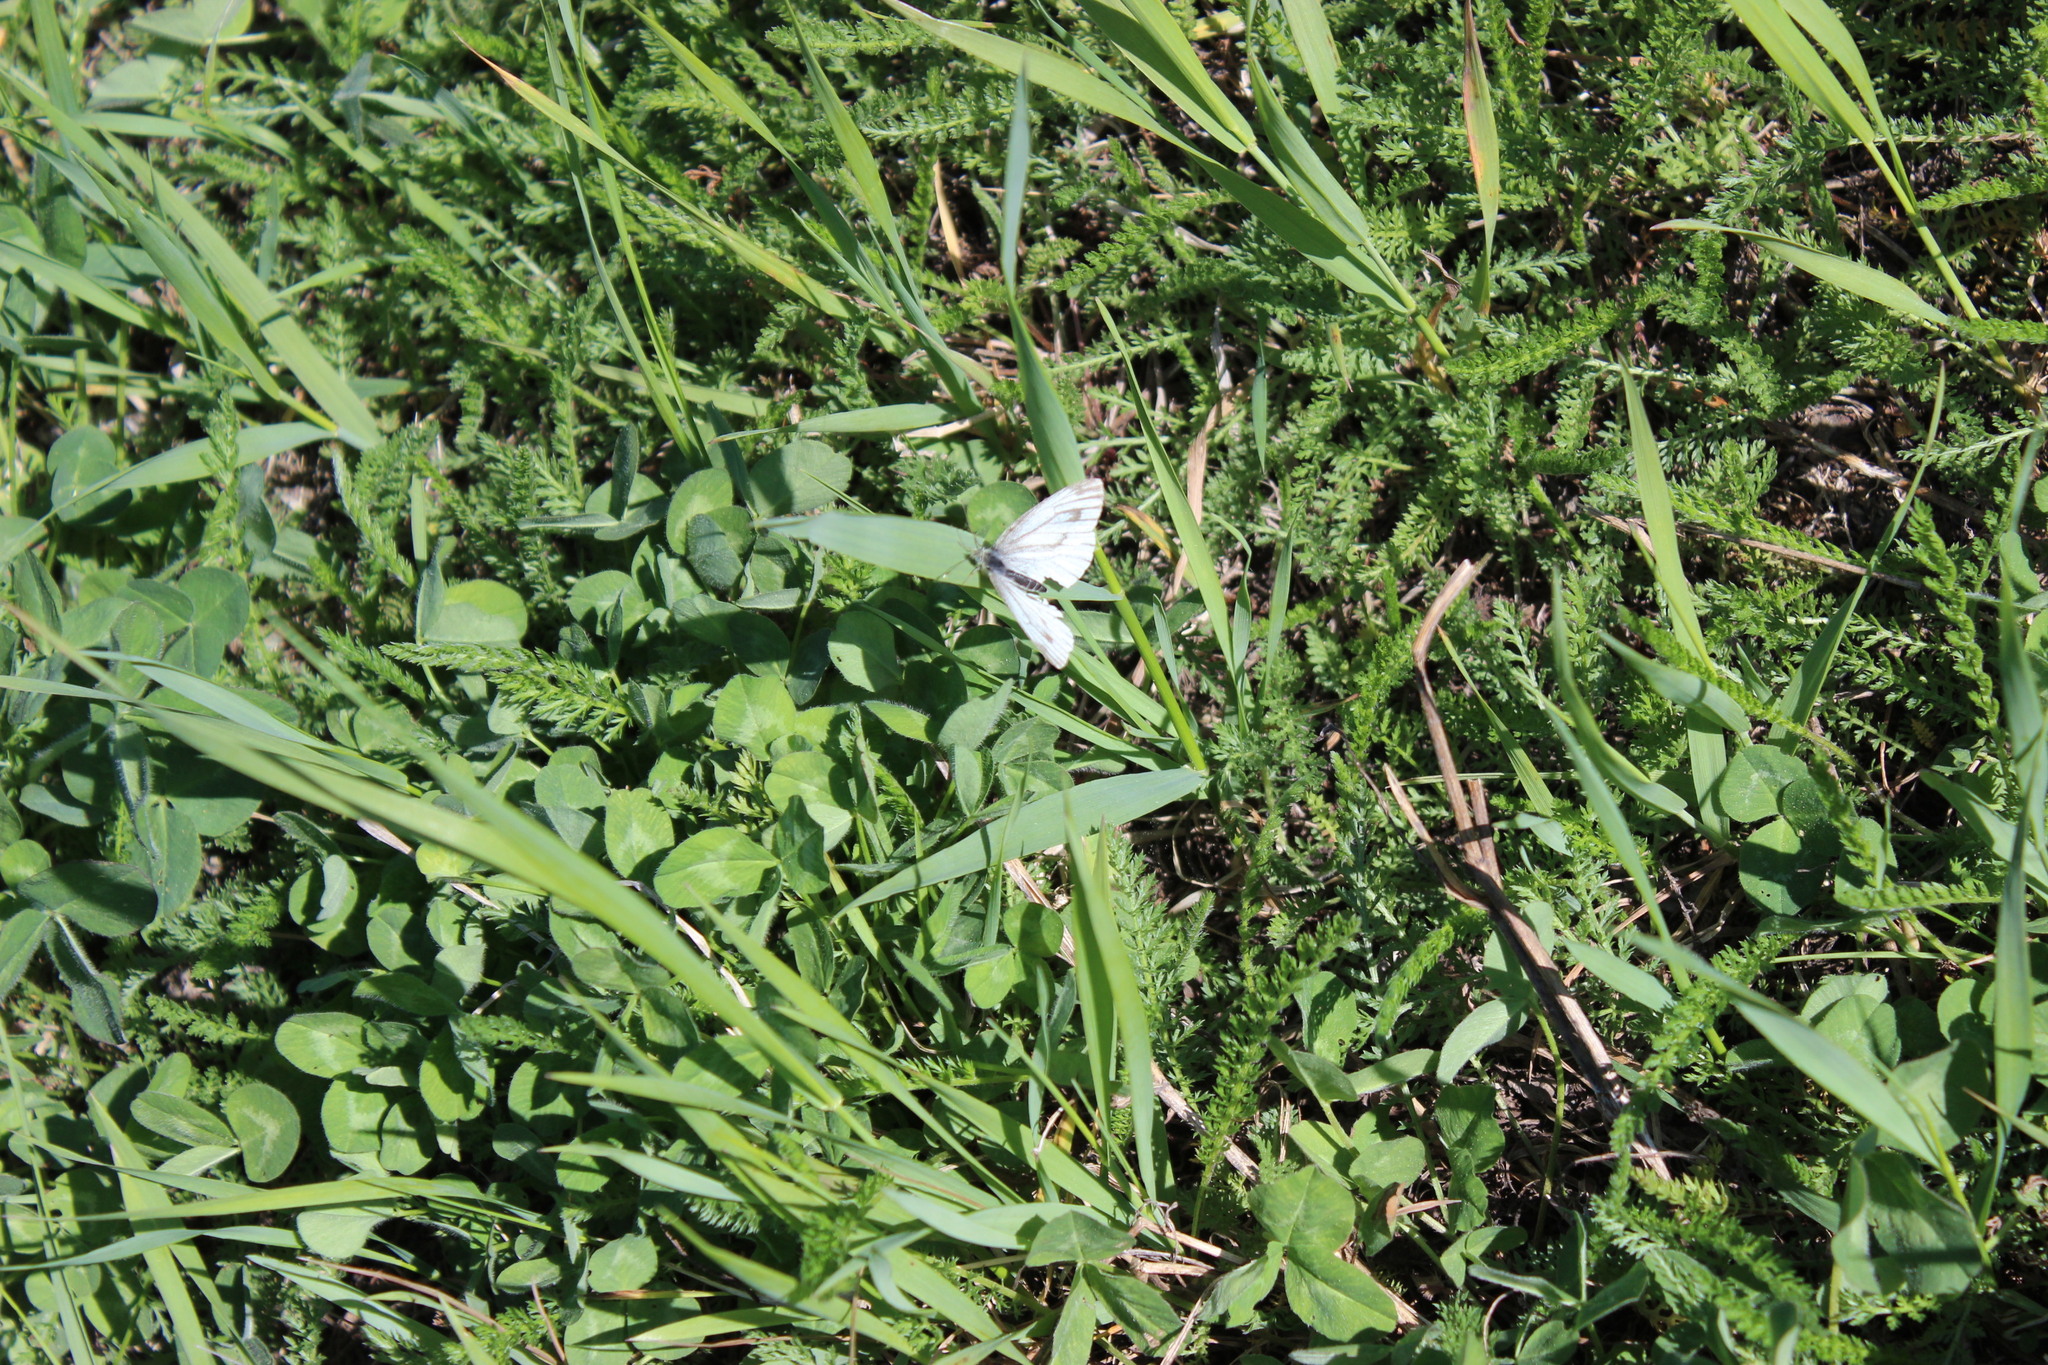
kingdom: Animalia
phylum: Arthropoda
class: Insecta
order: Lepidoptera
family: Pieridae
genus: Pieris
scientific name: Pieris napi
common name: Green-veined white
